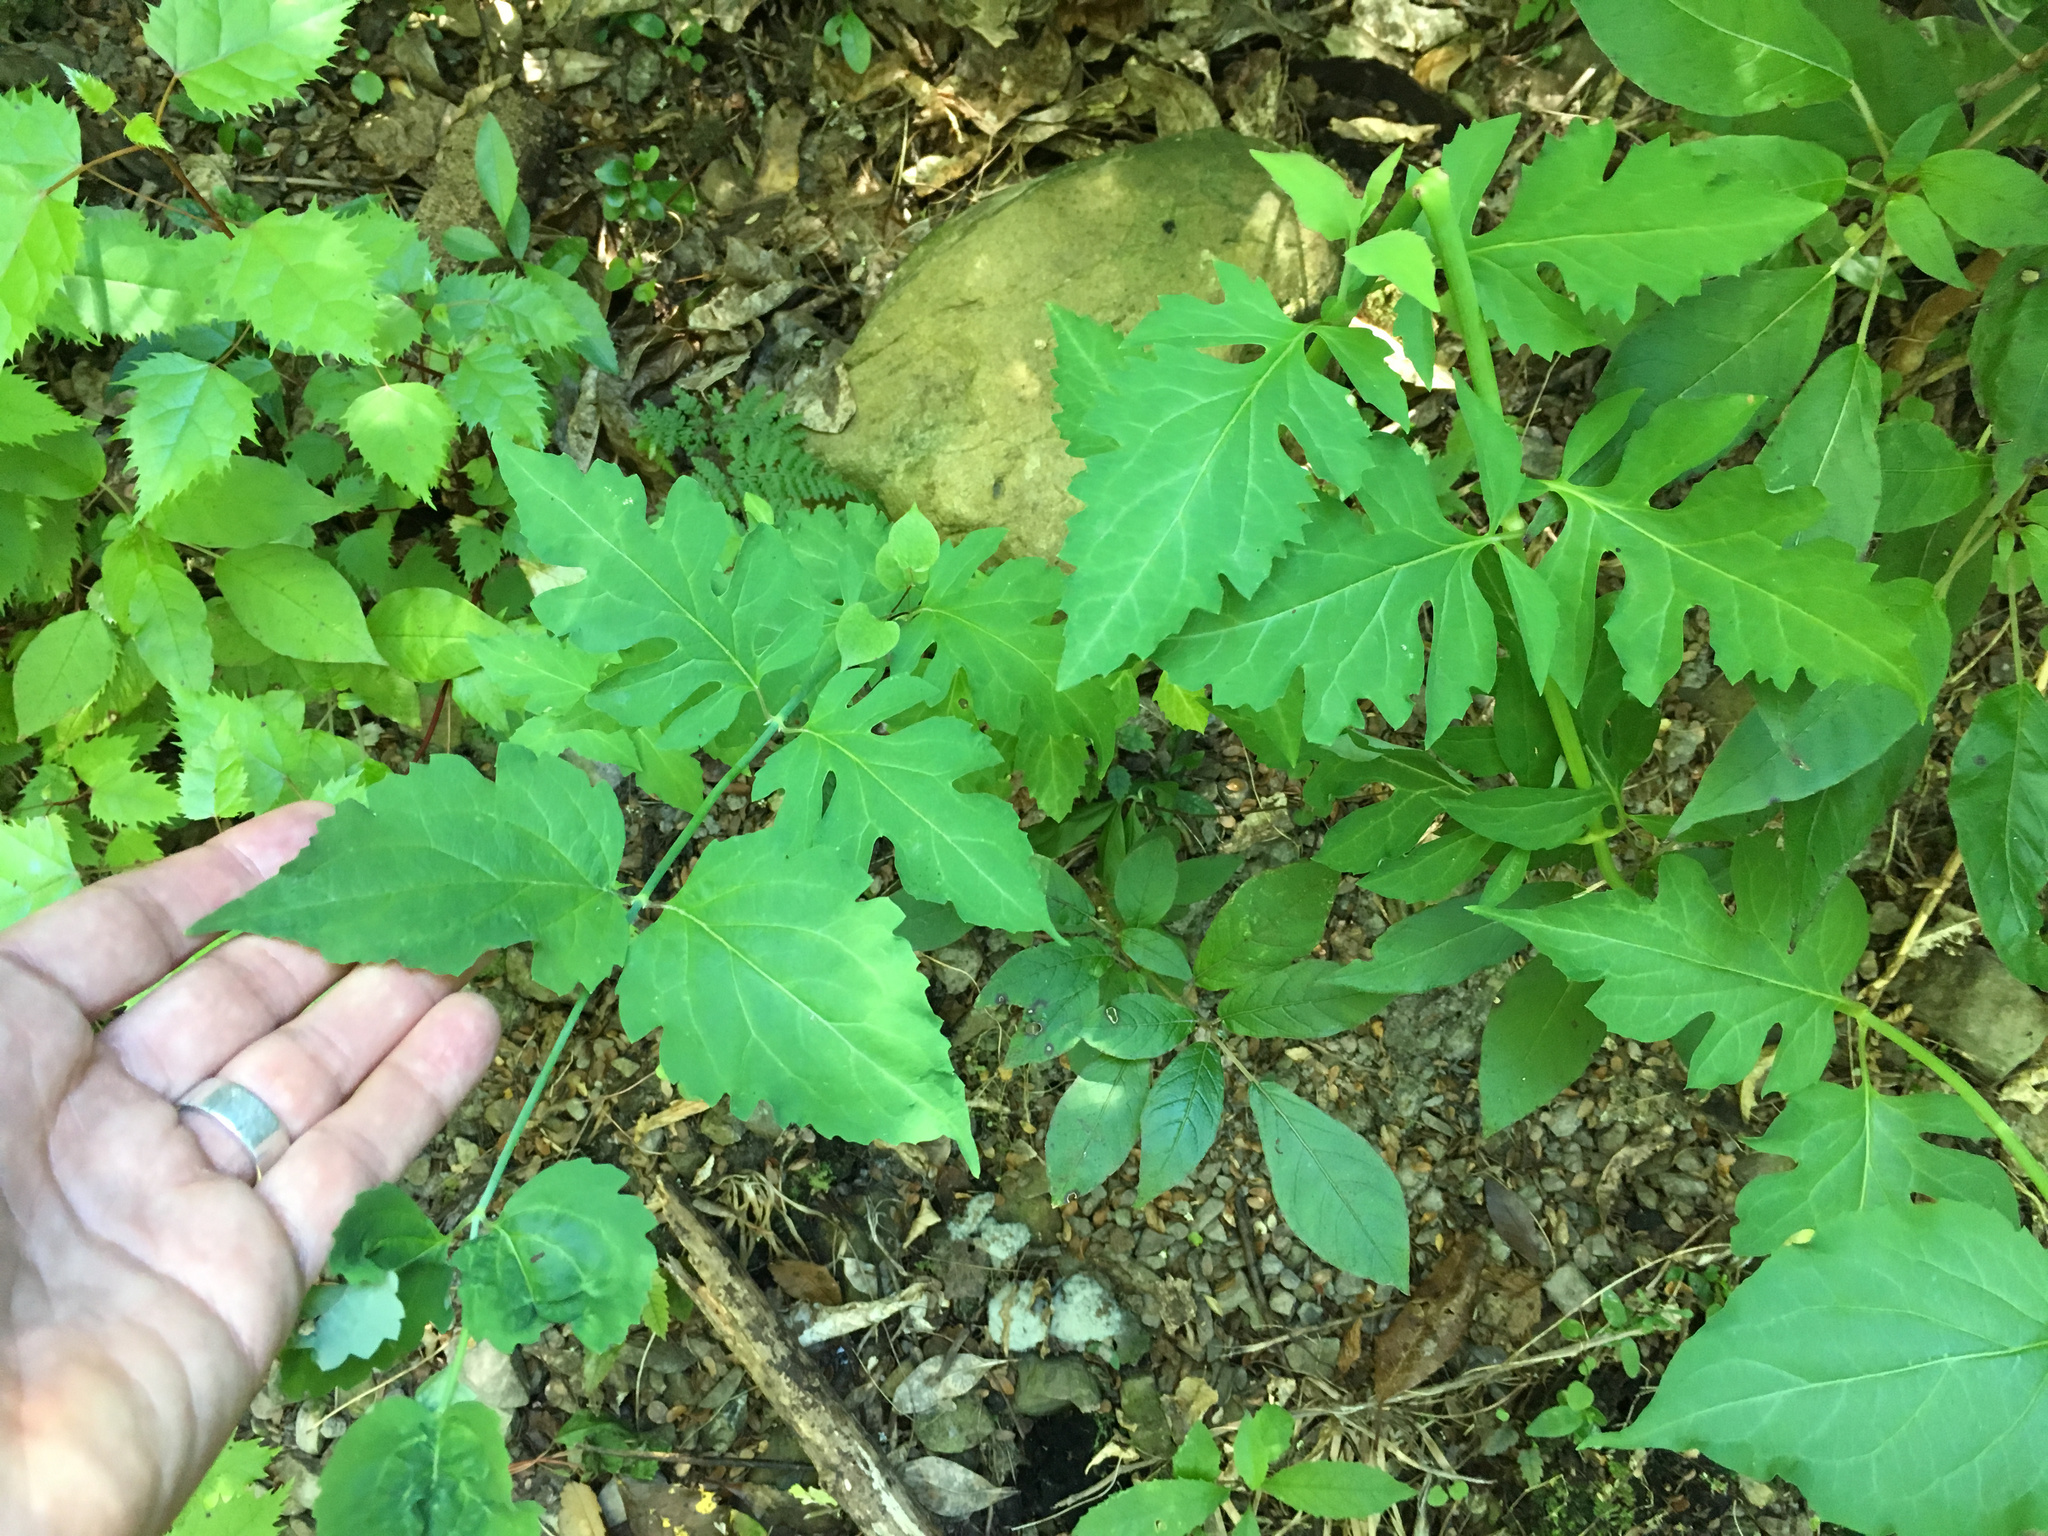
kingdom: Plantae
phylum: Tracheophyta
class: Magnoliopsida
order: Dipsacales
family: Caprifoliaceae
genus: Leycesteria
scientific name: Leycesteria formosa
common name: Himalayan honeysuckle
